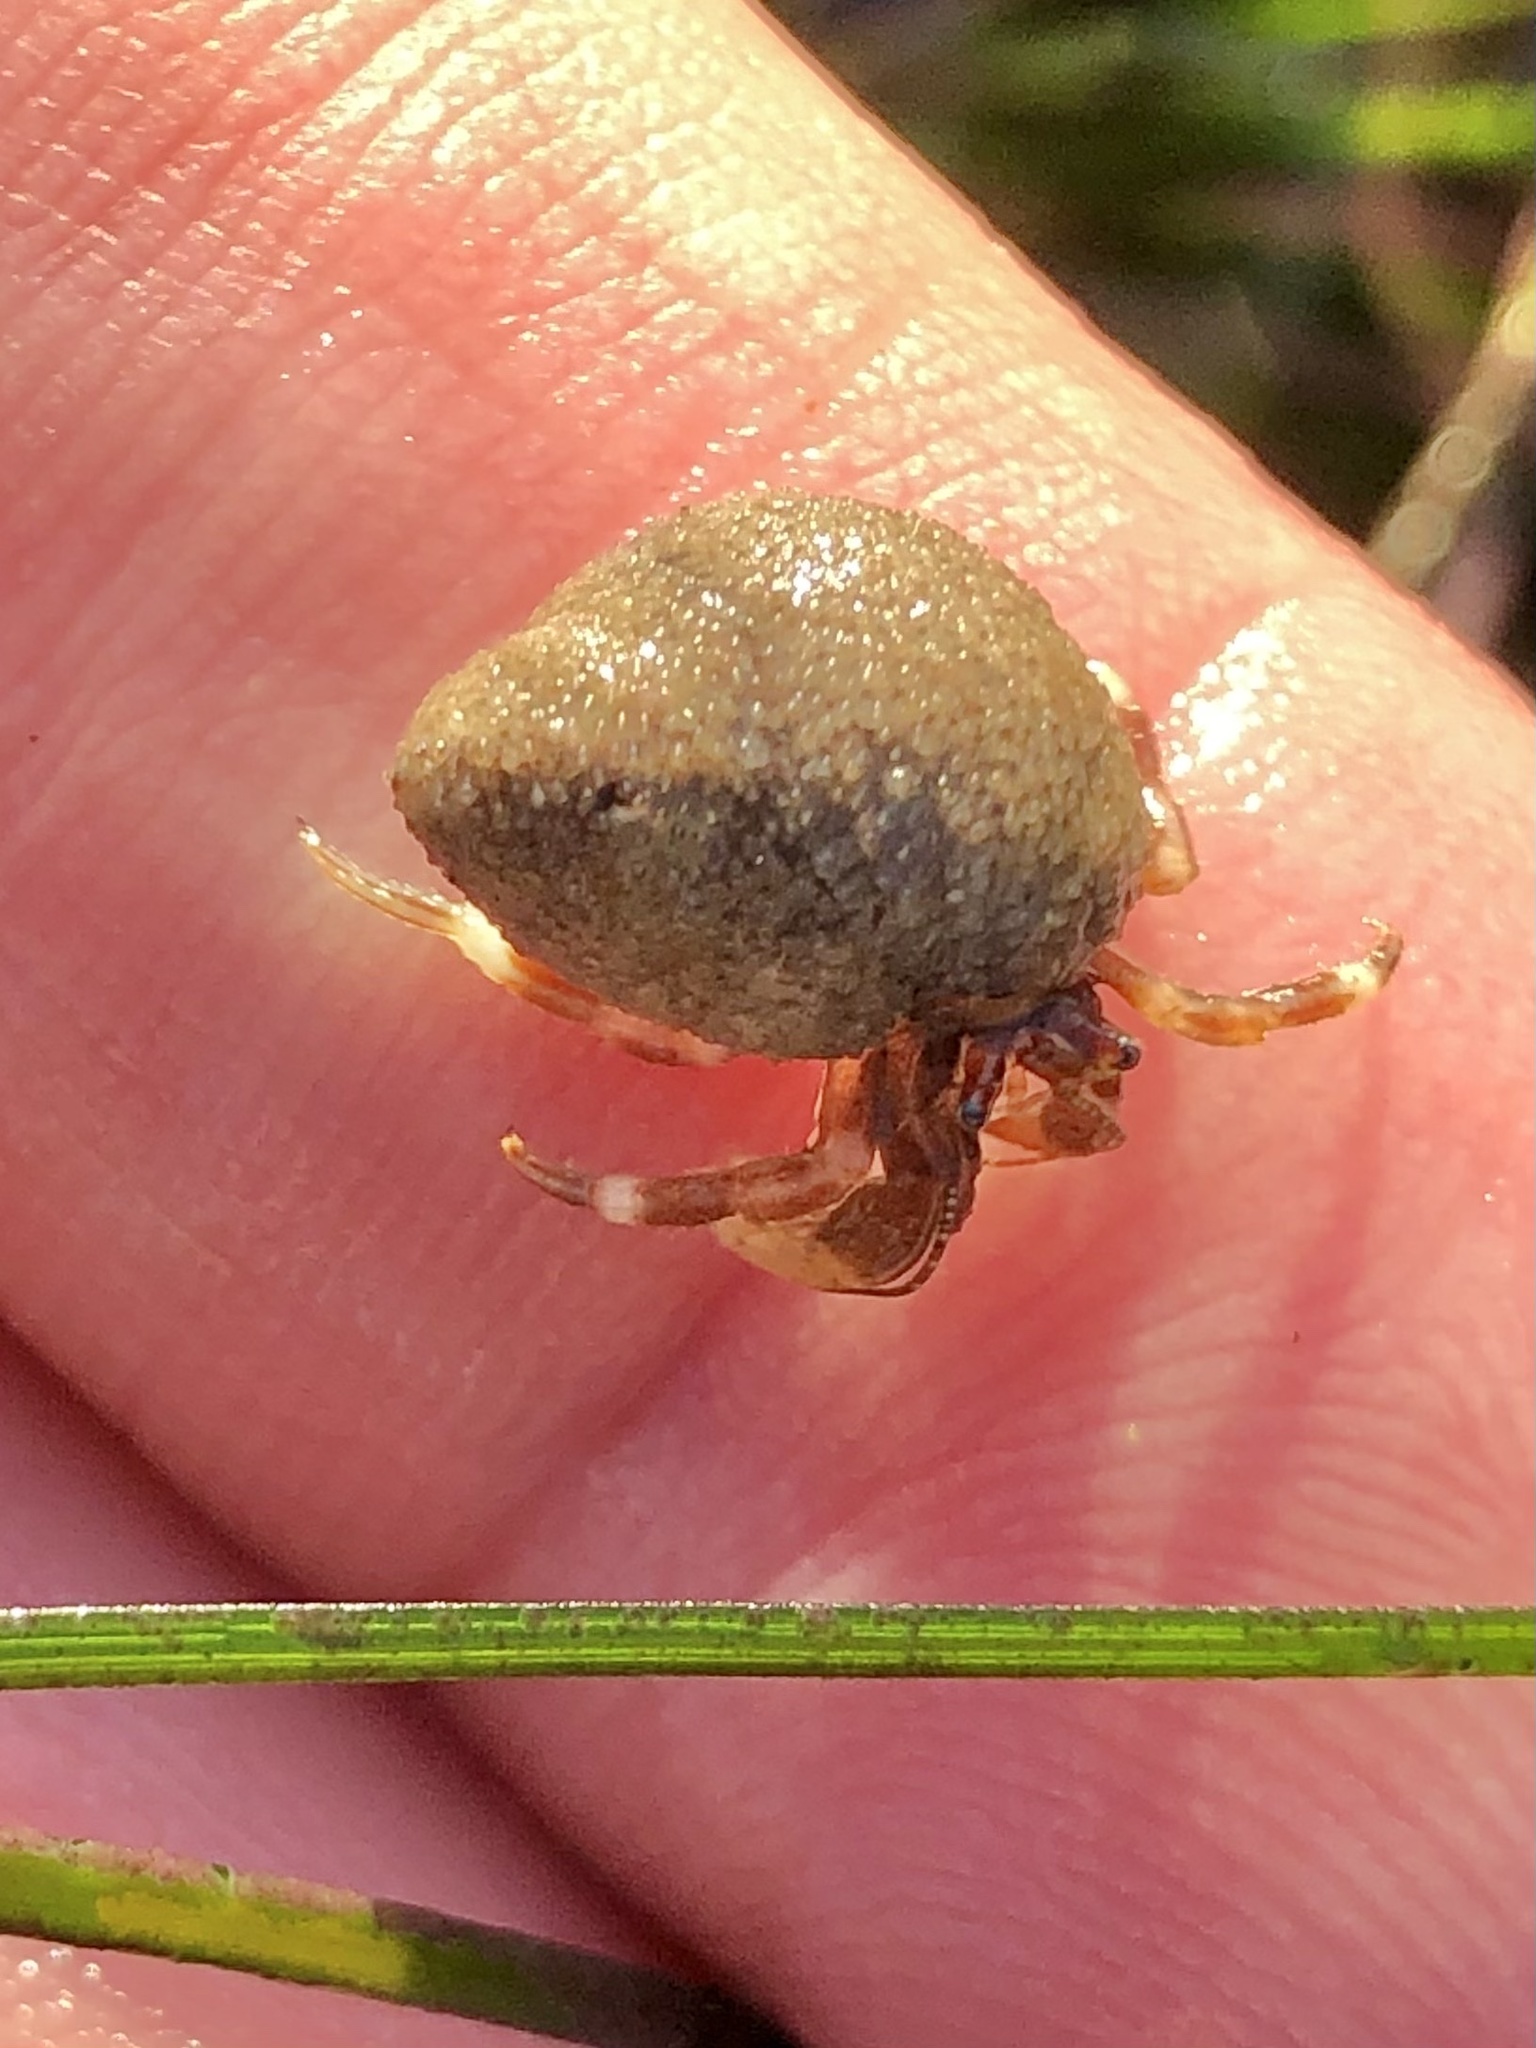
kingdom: Animalia
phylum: Arthropoda
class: Malacostraca
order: Decapoda
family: Paguridae
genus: Pagurus
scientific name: Pagurus venturensis
